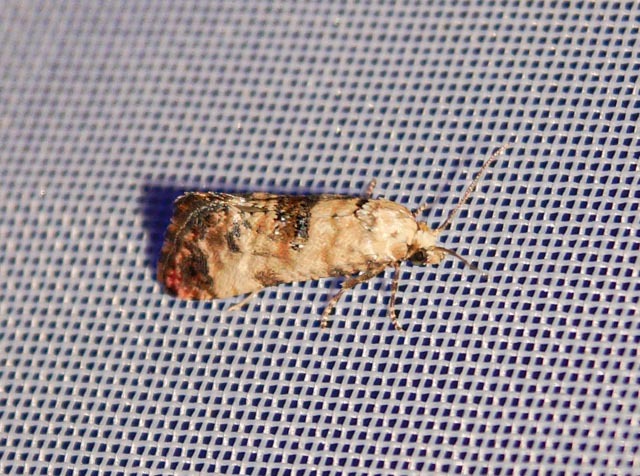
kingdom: Animalia
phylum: Arthropoda
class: Insecta
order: Lepidoptera
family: Tortricidae
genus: Cochylis
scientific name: Cochylis hybridella
